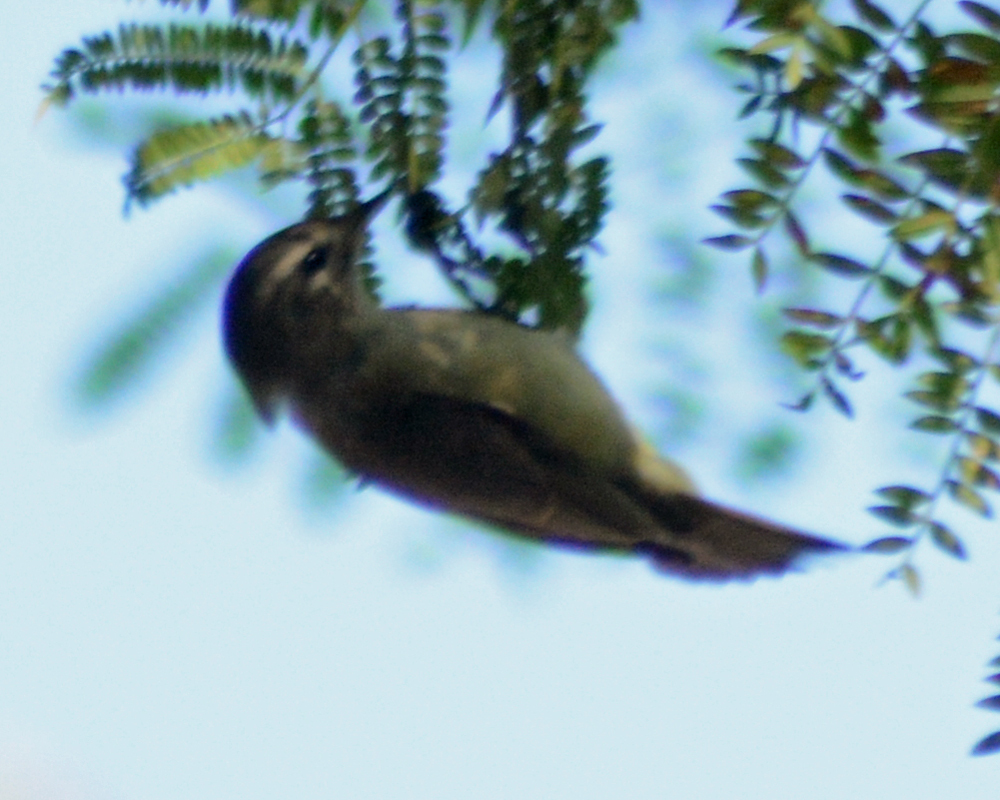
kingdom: Animalia
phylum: Chordata
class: Aves
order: Passeriformes
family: Vireonidae
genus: Vireo
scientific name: Vireo gilvus
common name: Warbling vireo
